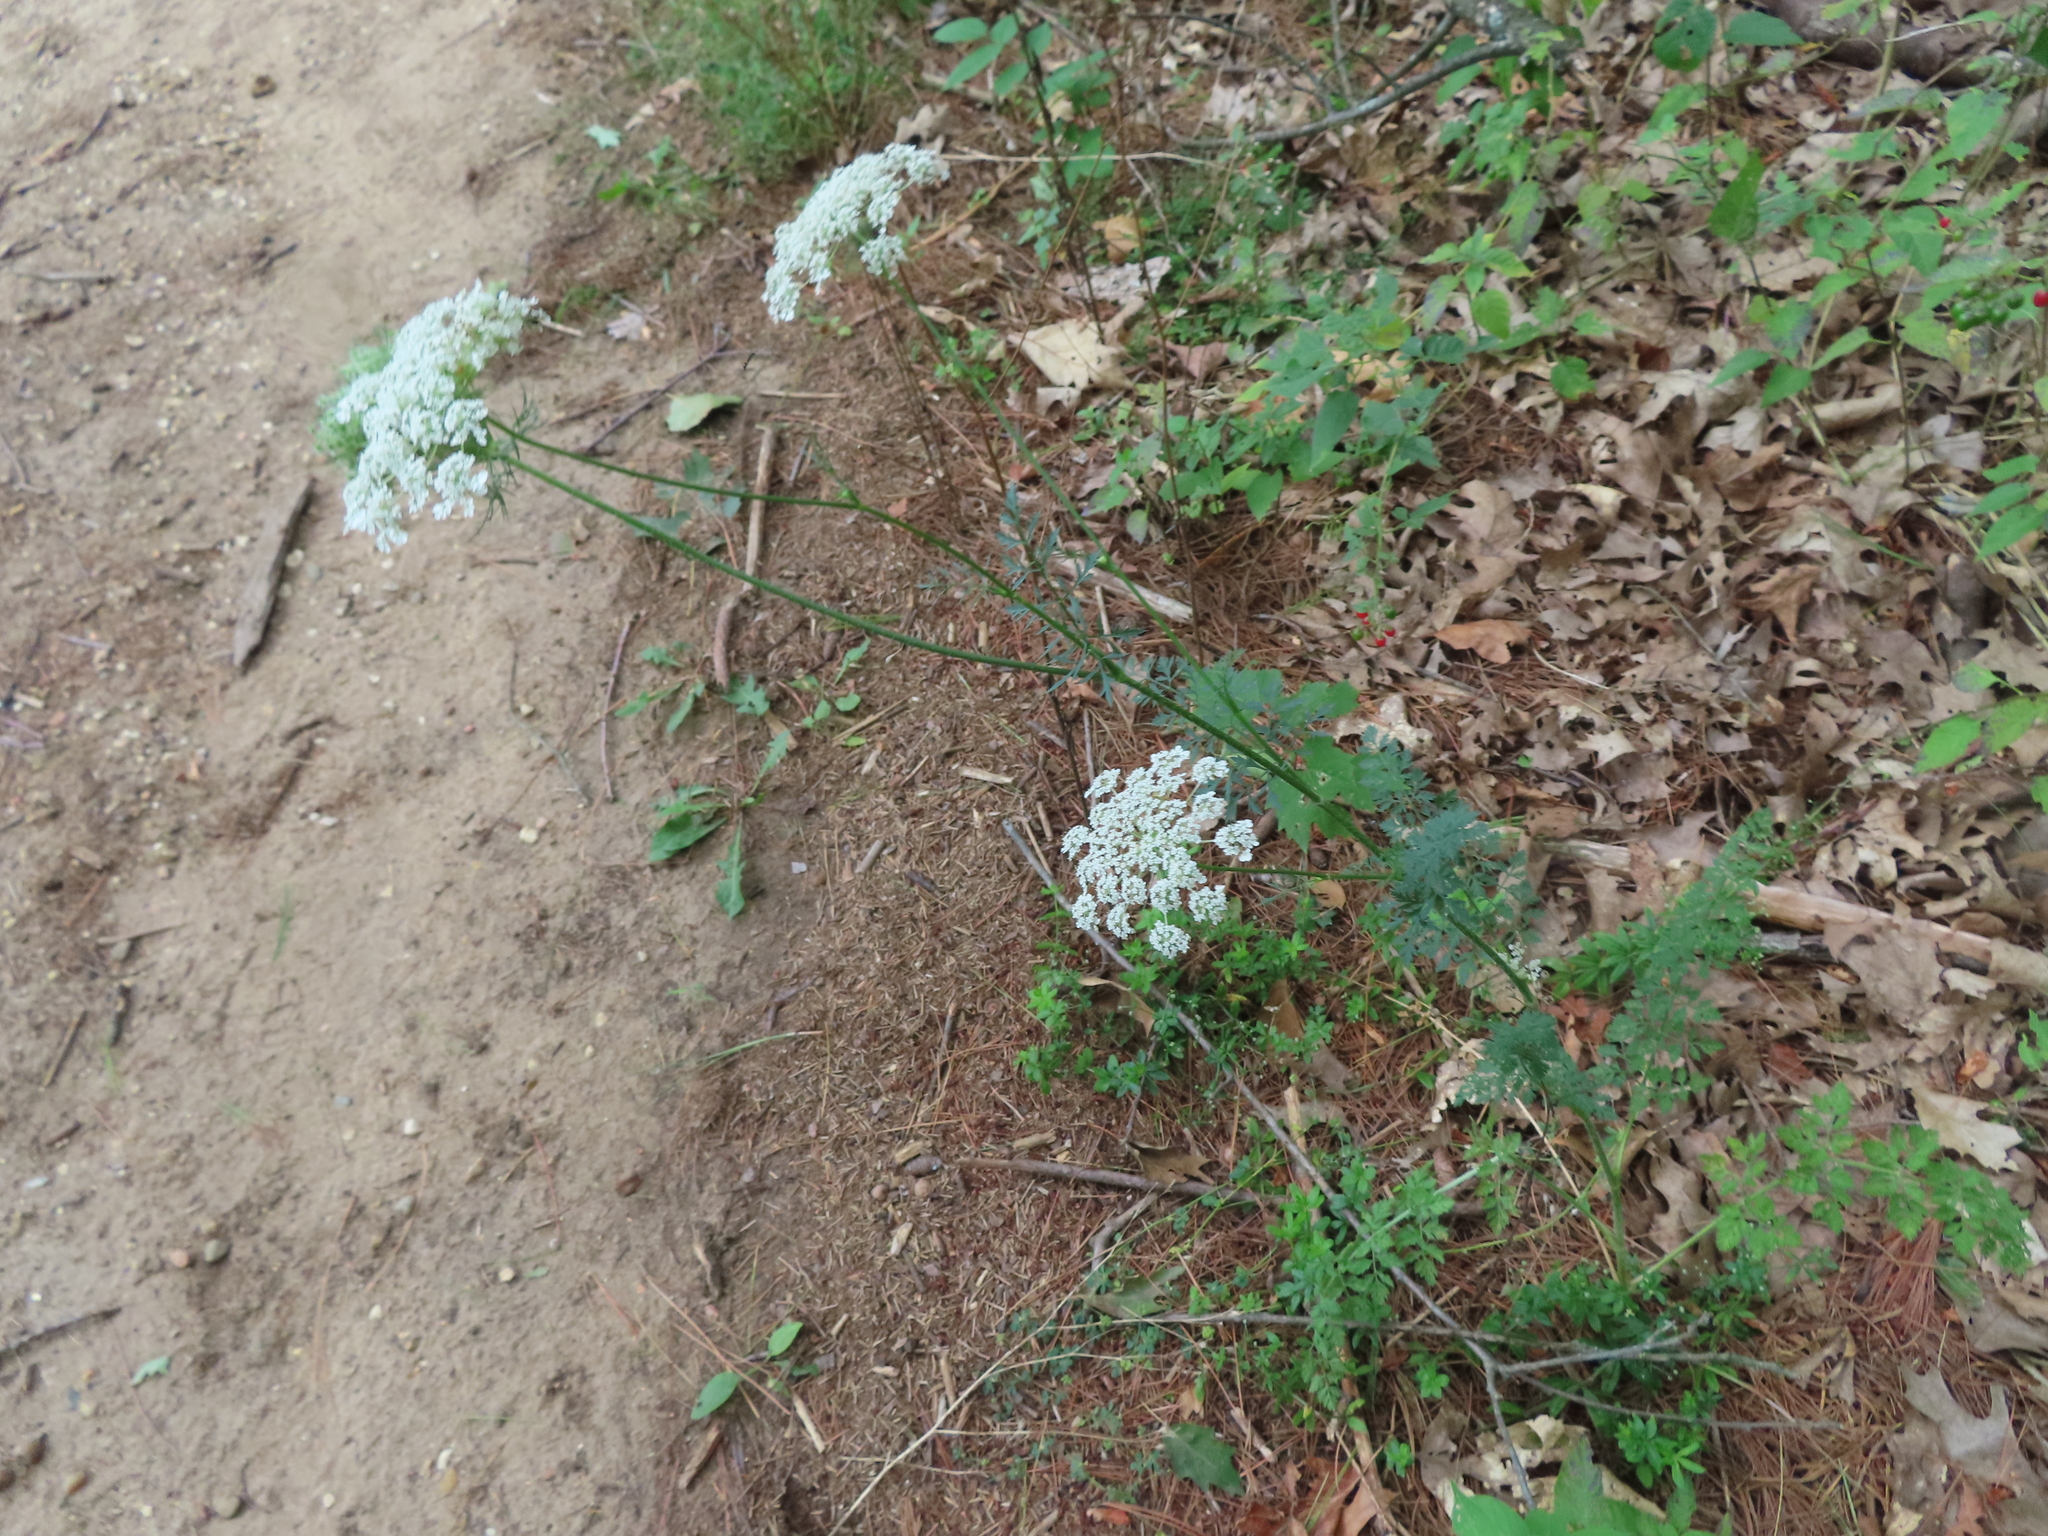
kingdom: Plantae
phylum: Tracheophyta
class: Magnoliopsida
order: Apiales
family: Apiaceae
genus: Daucus
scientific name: Daucus carota
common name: Wild carrot
